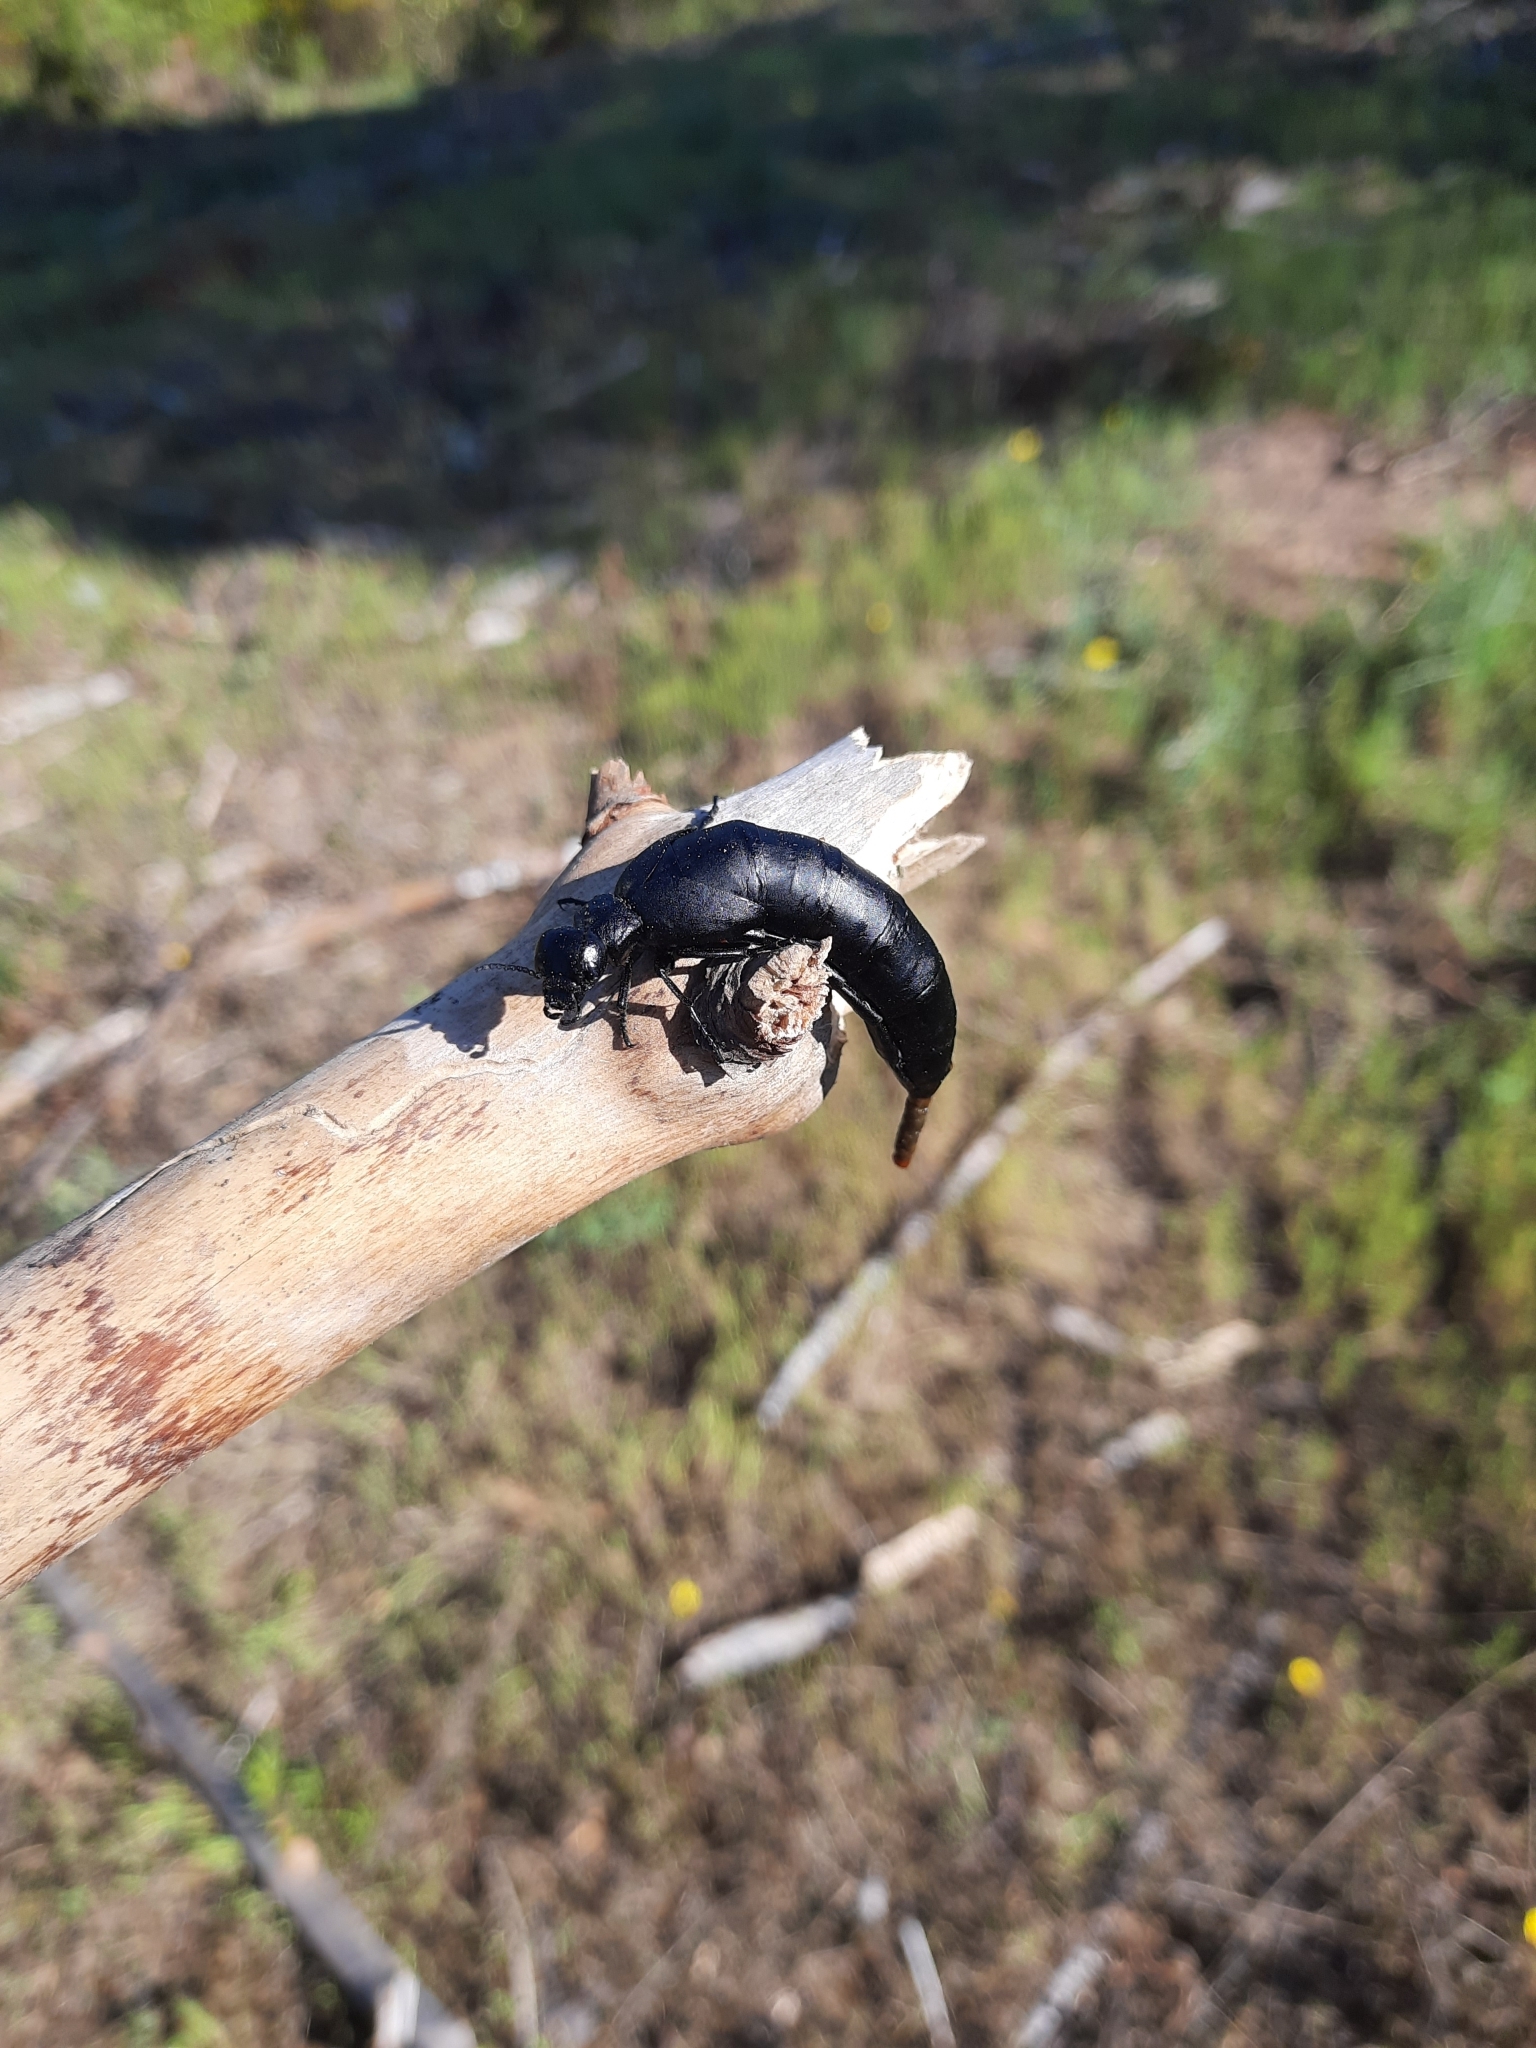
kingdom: Animalia
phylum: Arthropoda
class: Insecta
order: Coleoptera
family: Meloidae
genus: Berberomeloe
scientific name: Berberomeloe castuo
